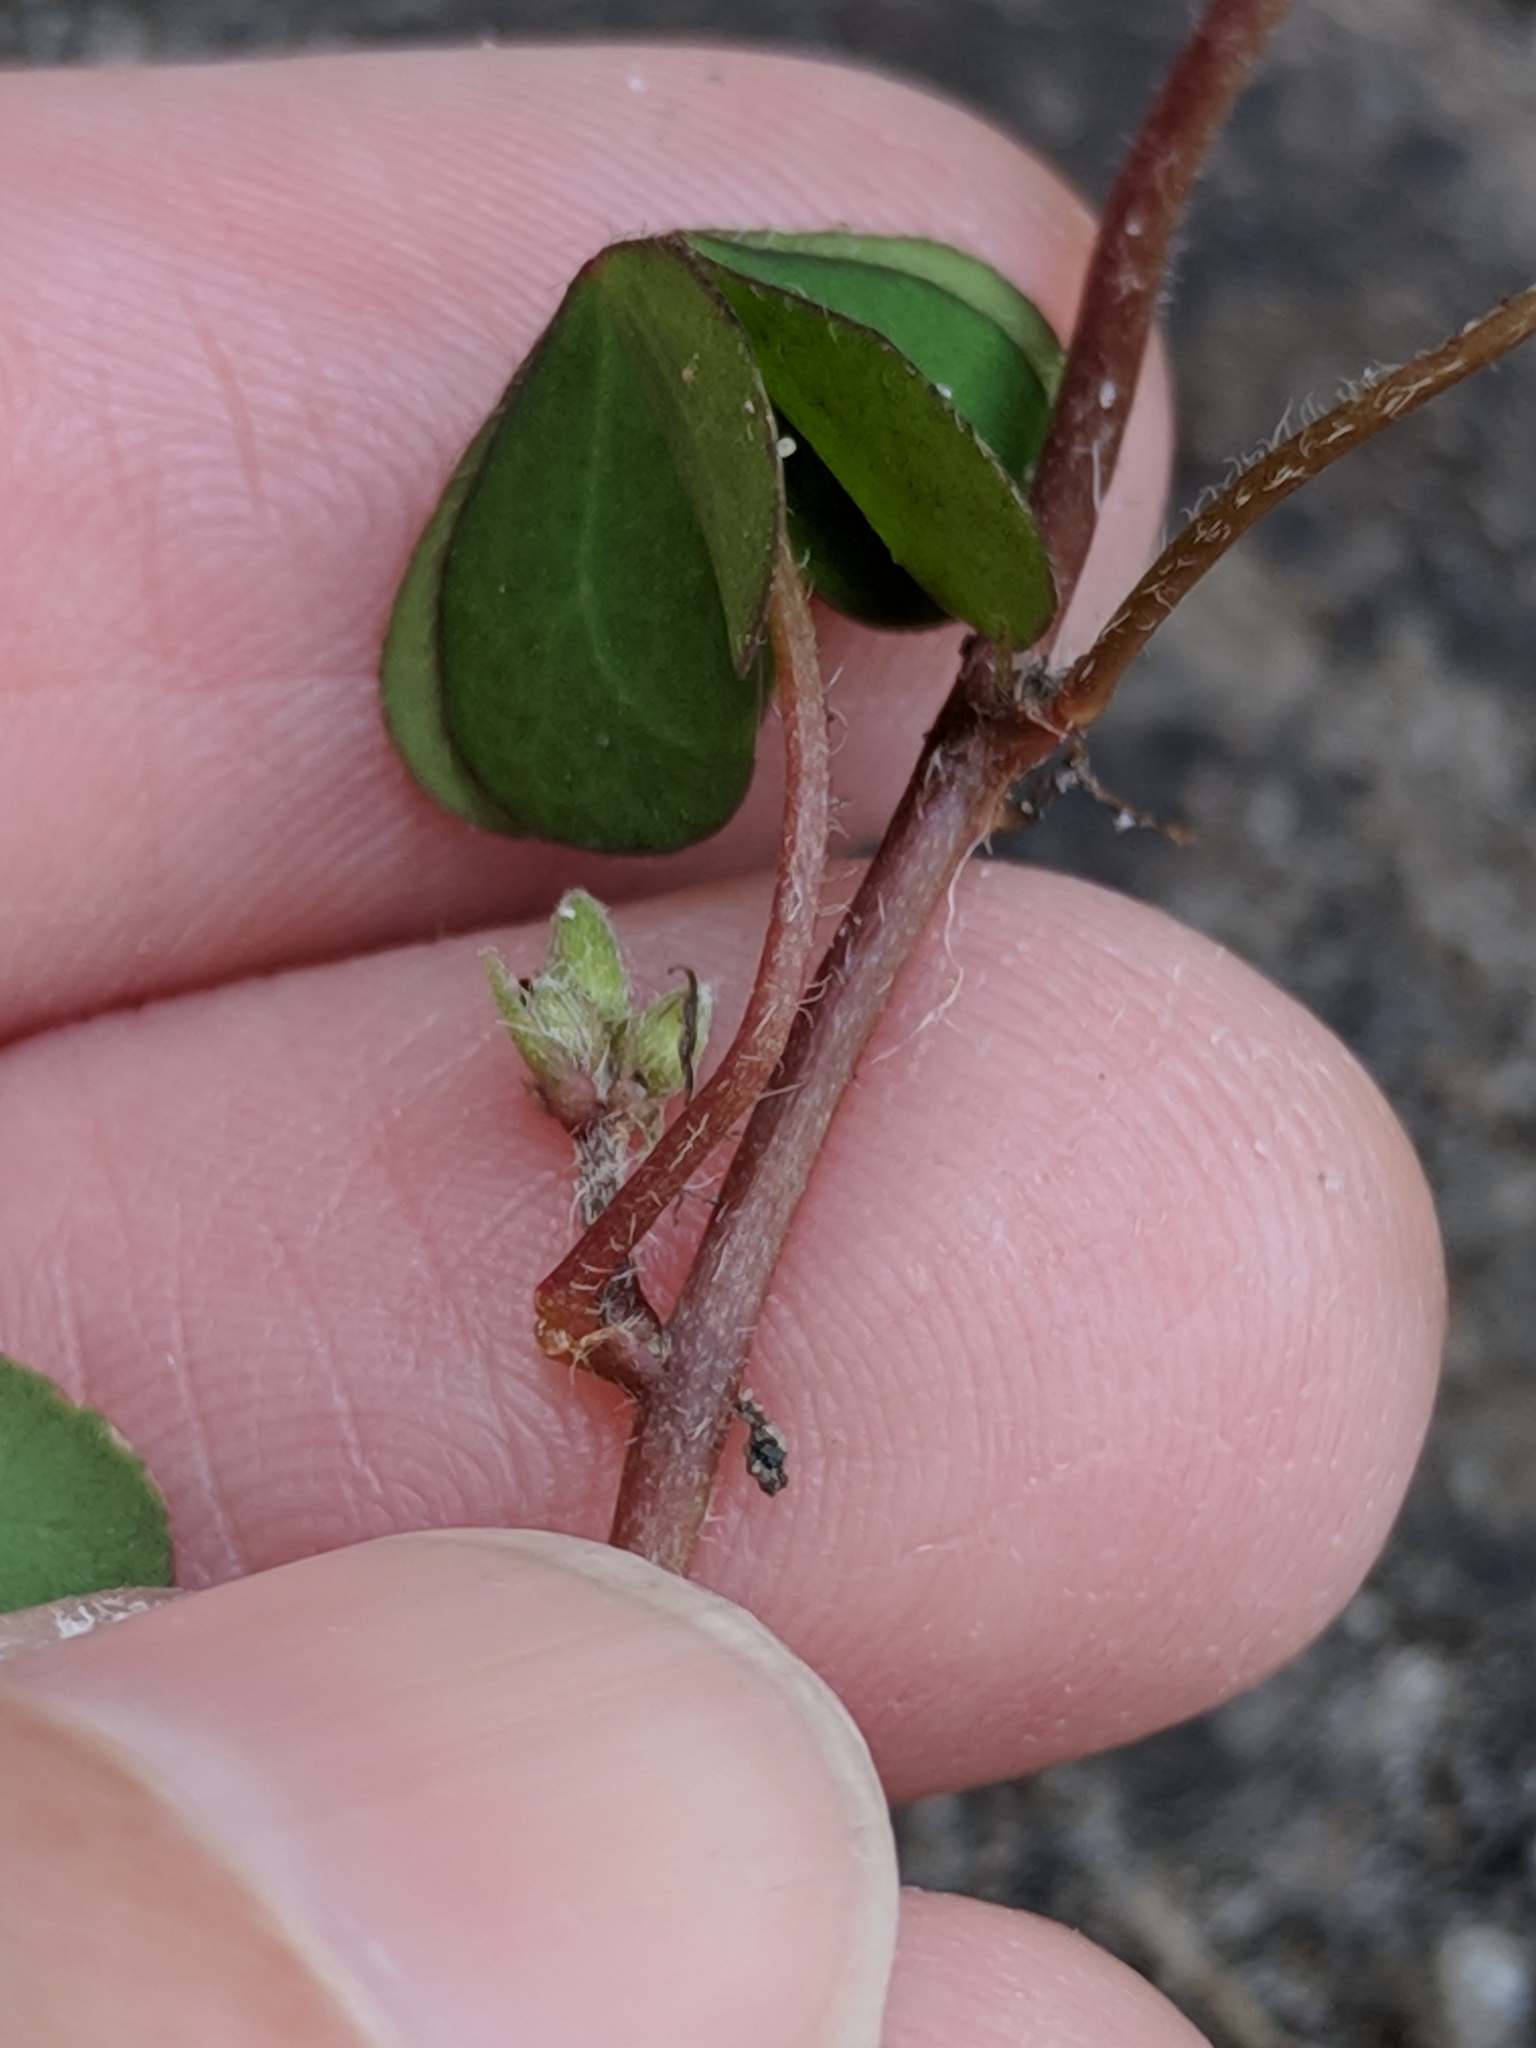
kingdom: Plantae
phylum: Tracheophyta
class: Magnoliopsida
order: Oxalidales
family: Oxalidaceae
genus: Oxalis
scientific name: Oxalis corniculata
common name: Procumbent yellow-sorrel
